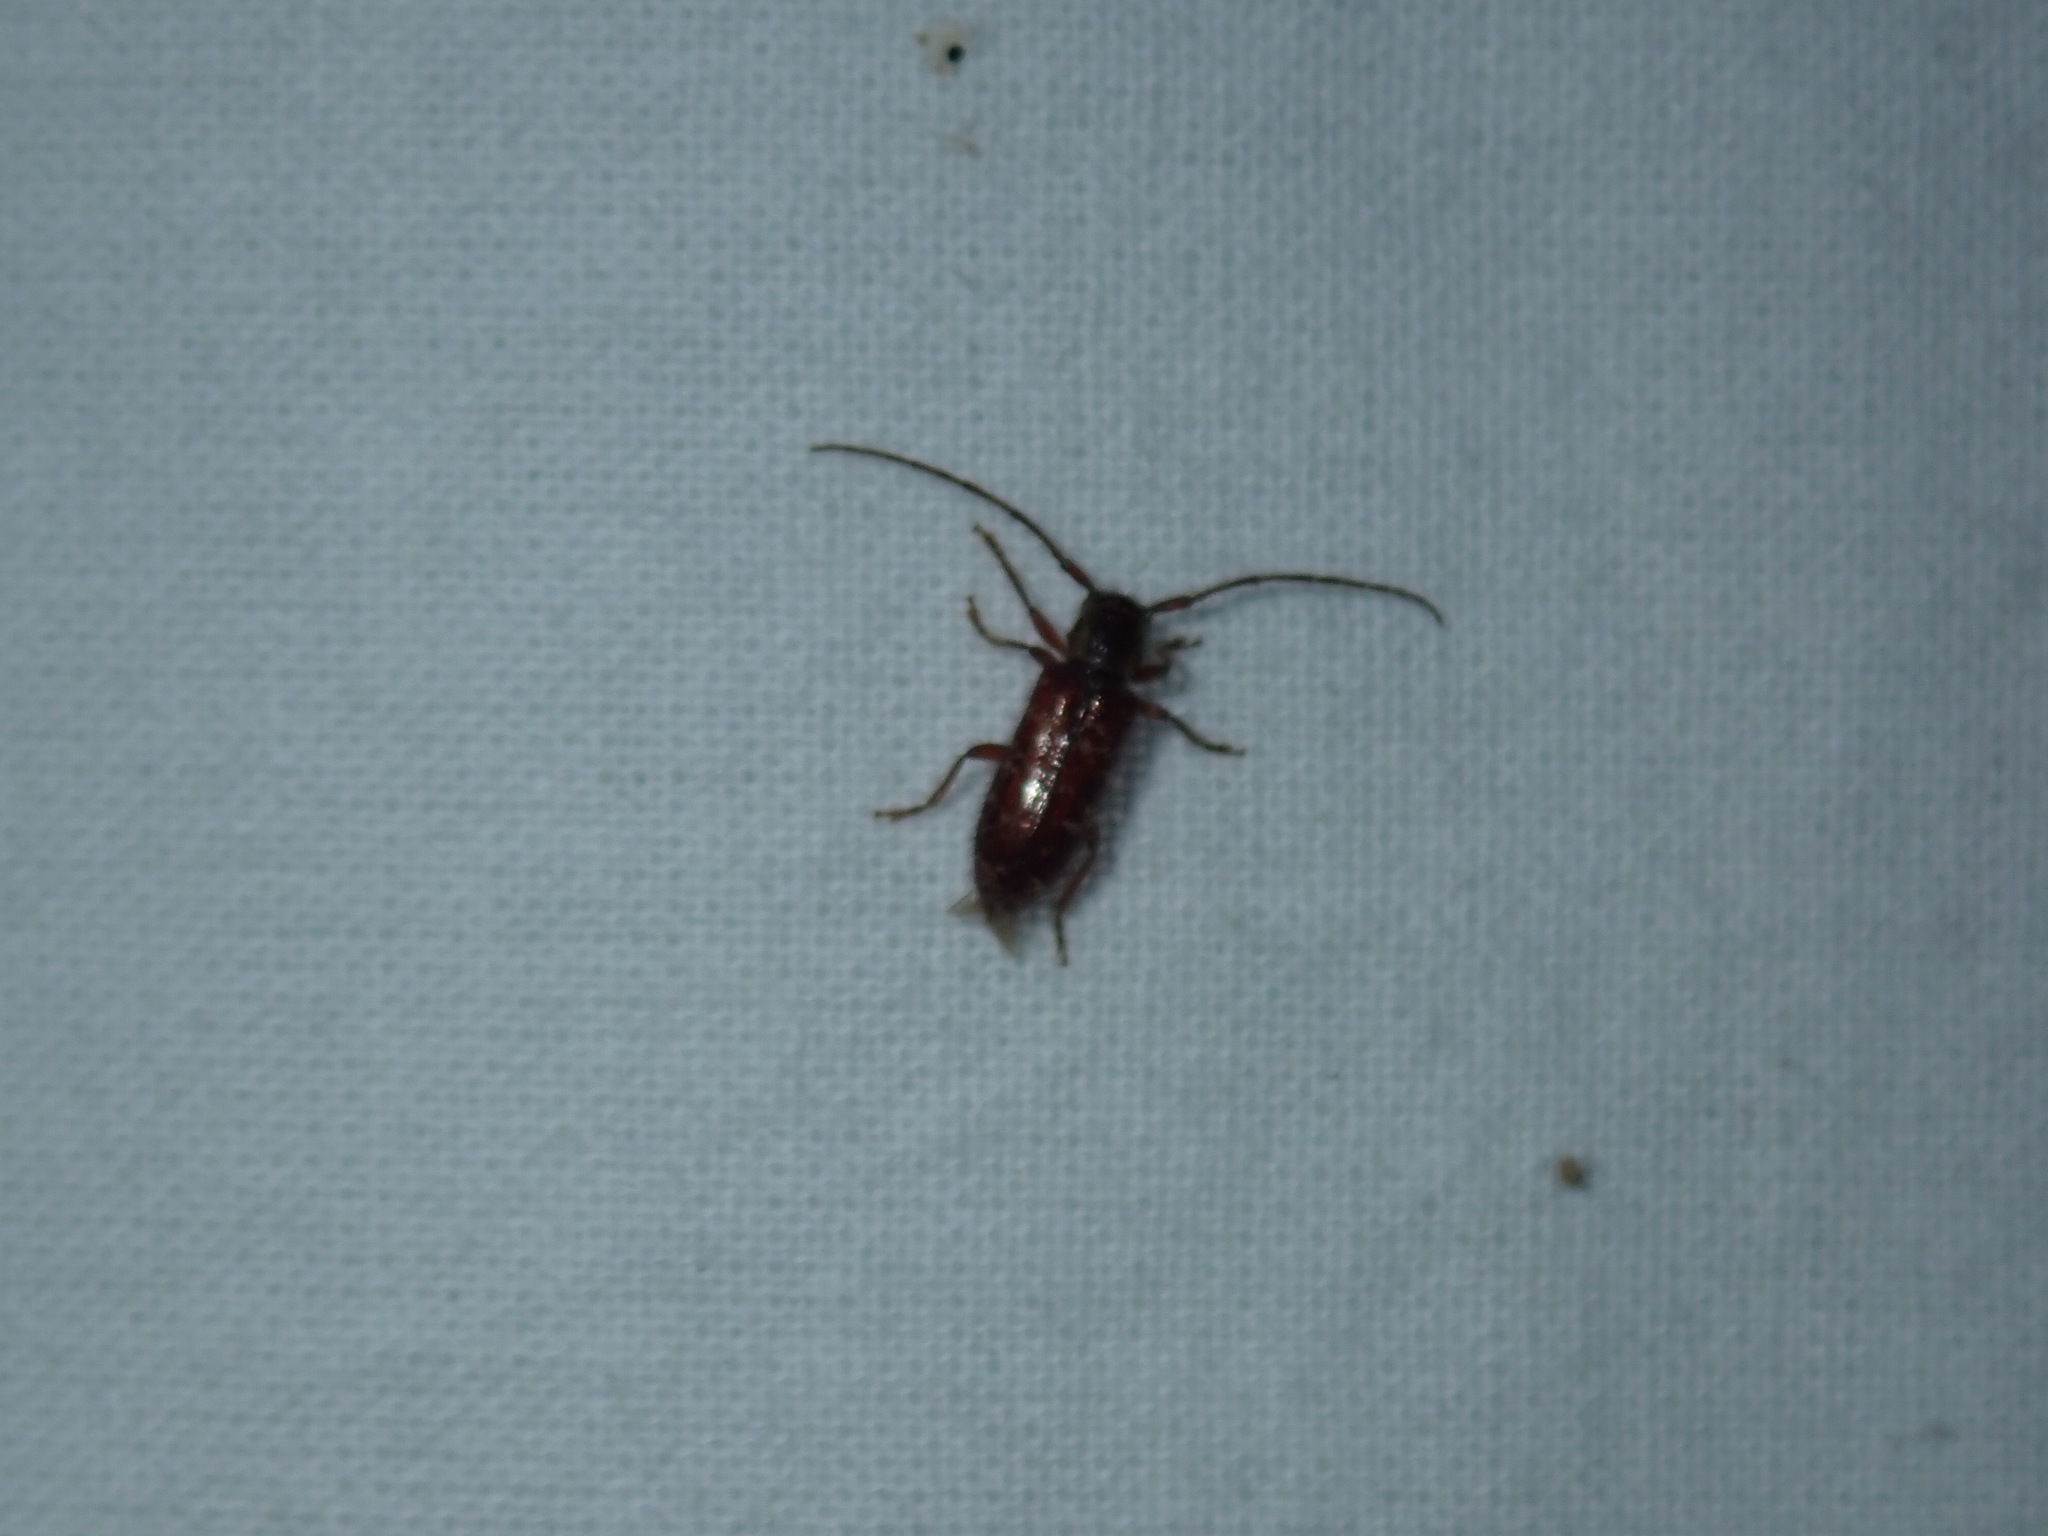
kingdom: Animalia
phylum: Arthropoda
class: Insecta
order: Coleoptera
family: Cerambycidae
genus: Eupogonius
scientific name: Eupogonius tomentosus
